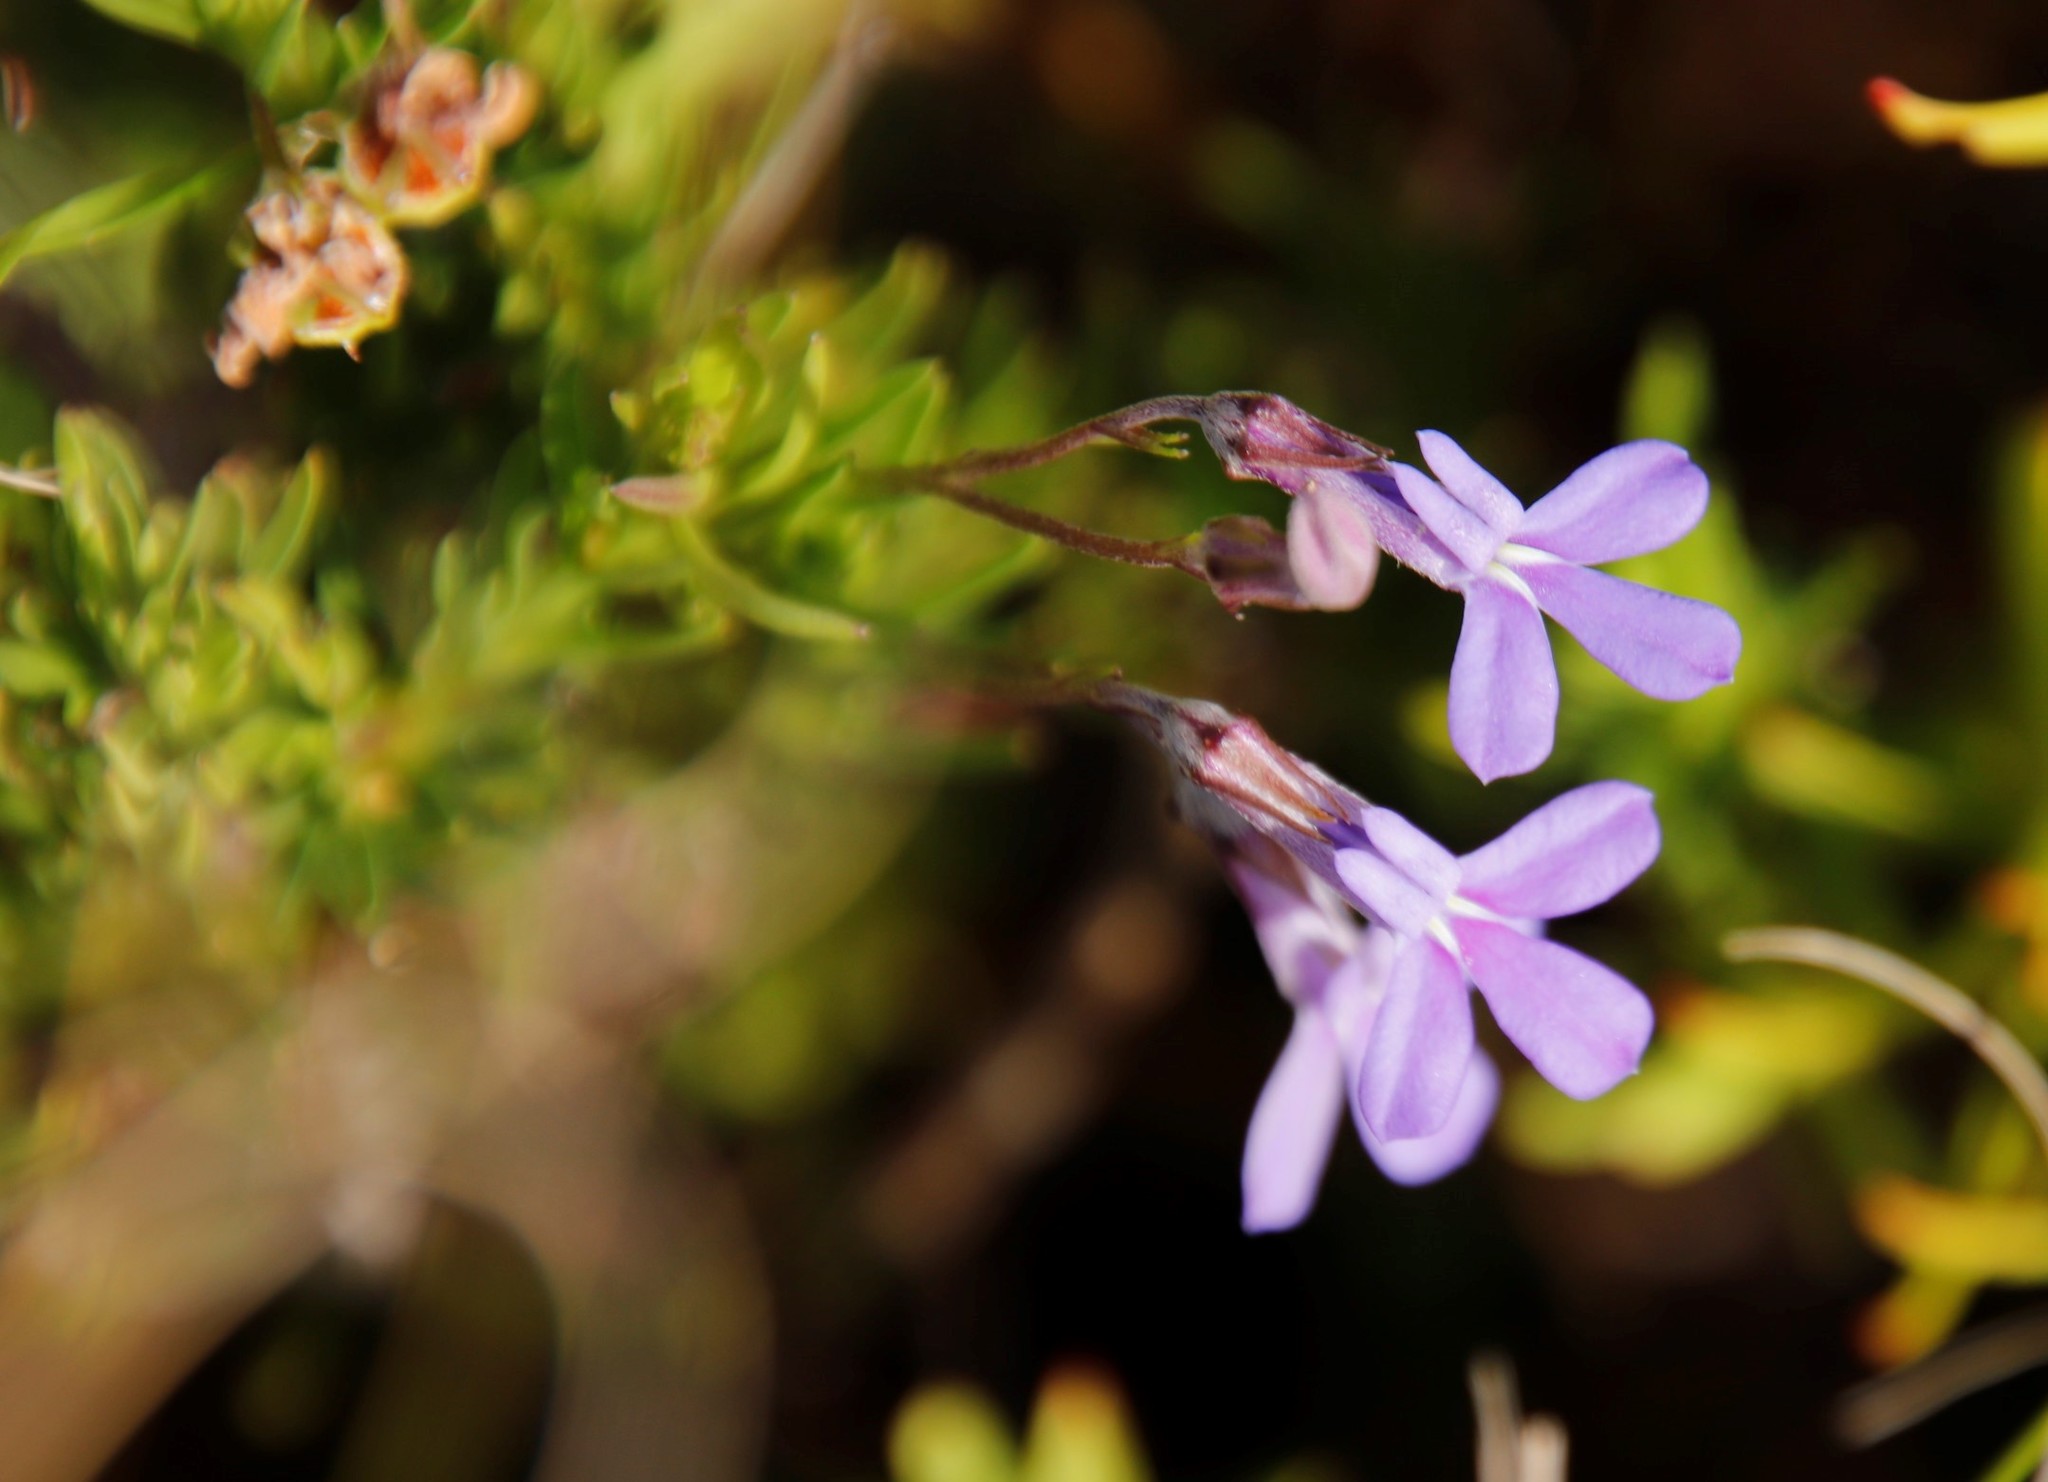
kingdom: Plantae
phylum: Tracheophyta
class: Magnoliopsida
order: Asterales
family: Campanulaceae
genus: Lobelia
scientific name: Lobelia pinifolia
